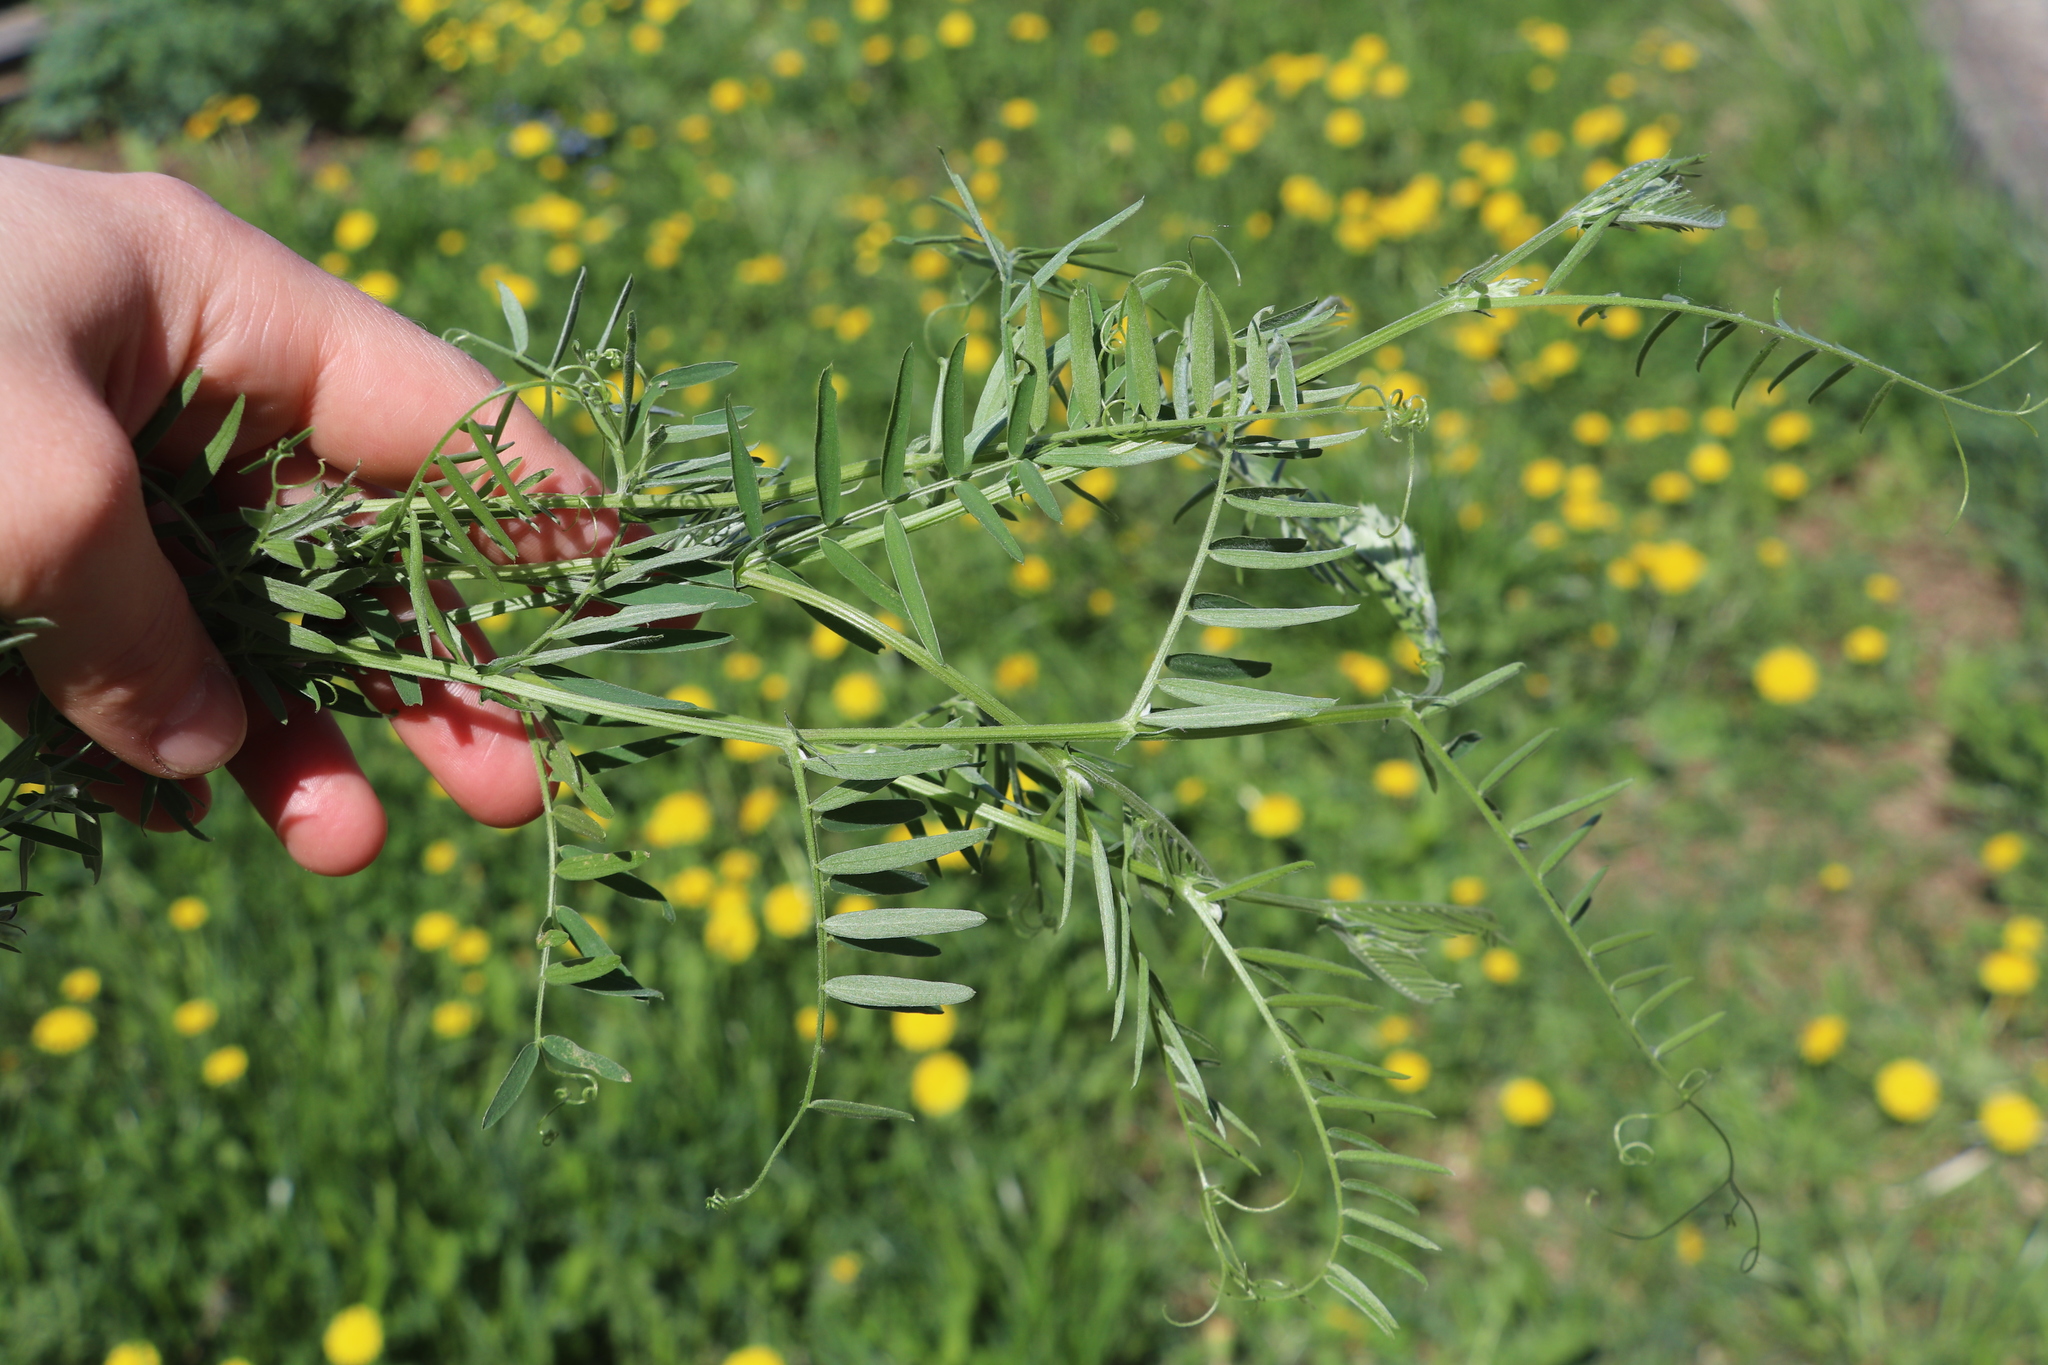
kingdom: Plantae
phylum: Tracheophyta
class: Magnoliopsida
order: Fabales
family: Fabaceae
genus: Vicia
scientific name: Vicia cracca
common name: Bird vetch
